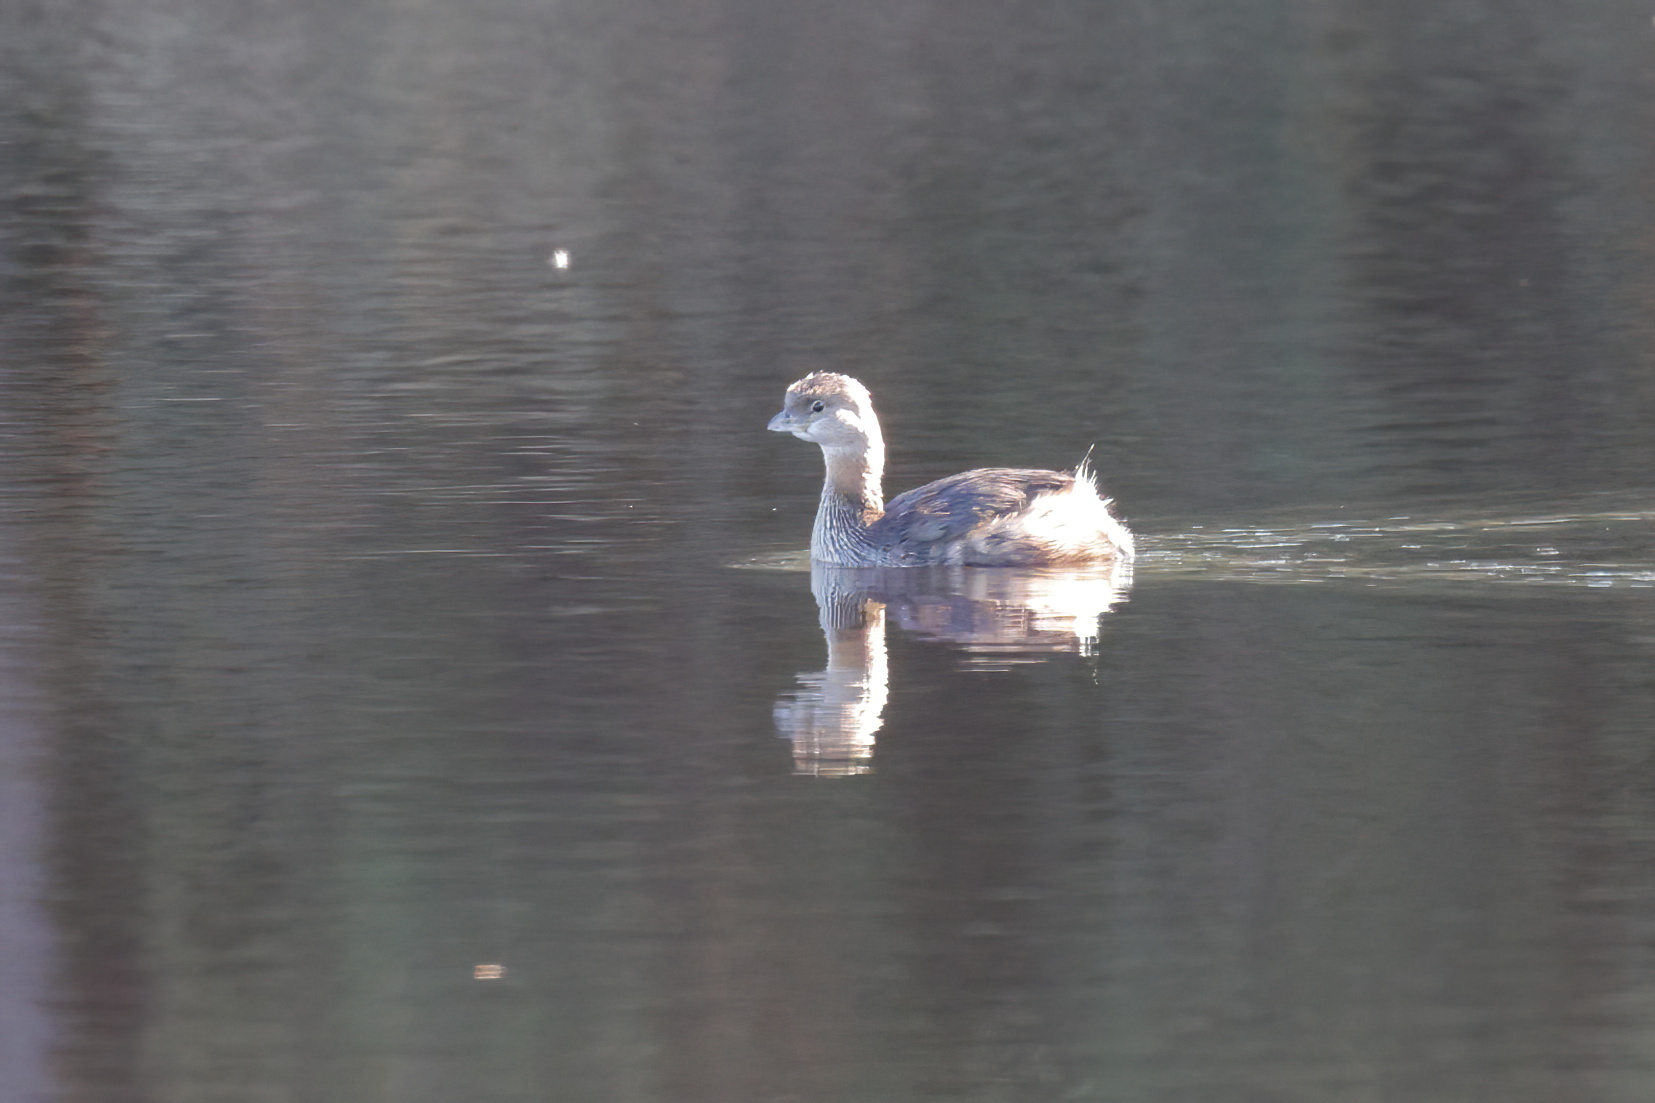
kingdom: Animalia
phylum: Chordata
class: Aves
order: Podicipediformes
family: Podicipedidae
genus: Podilymbus
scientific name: Podilymbus podiceps
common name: Pied-billed grebe
